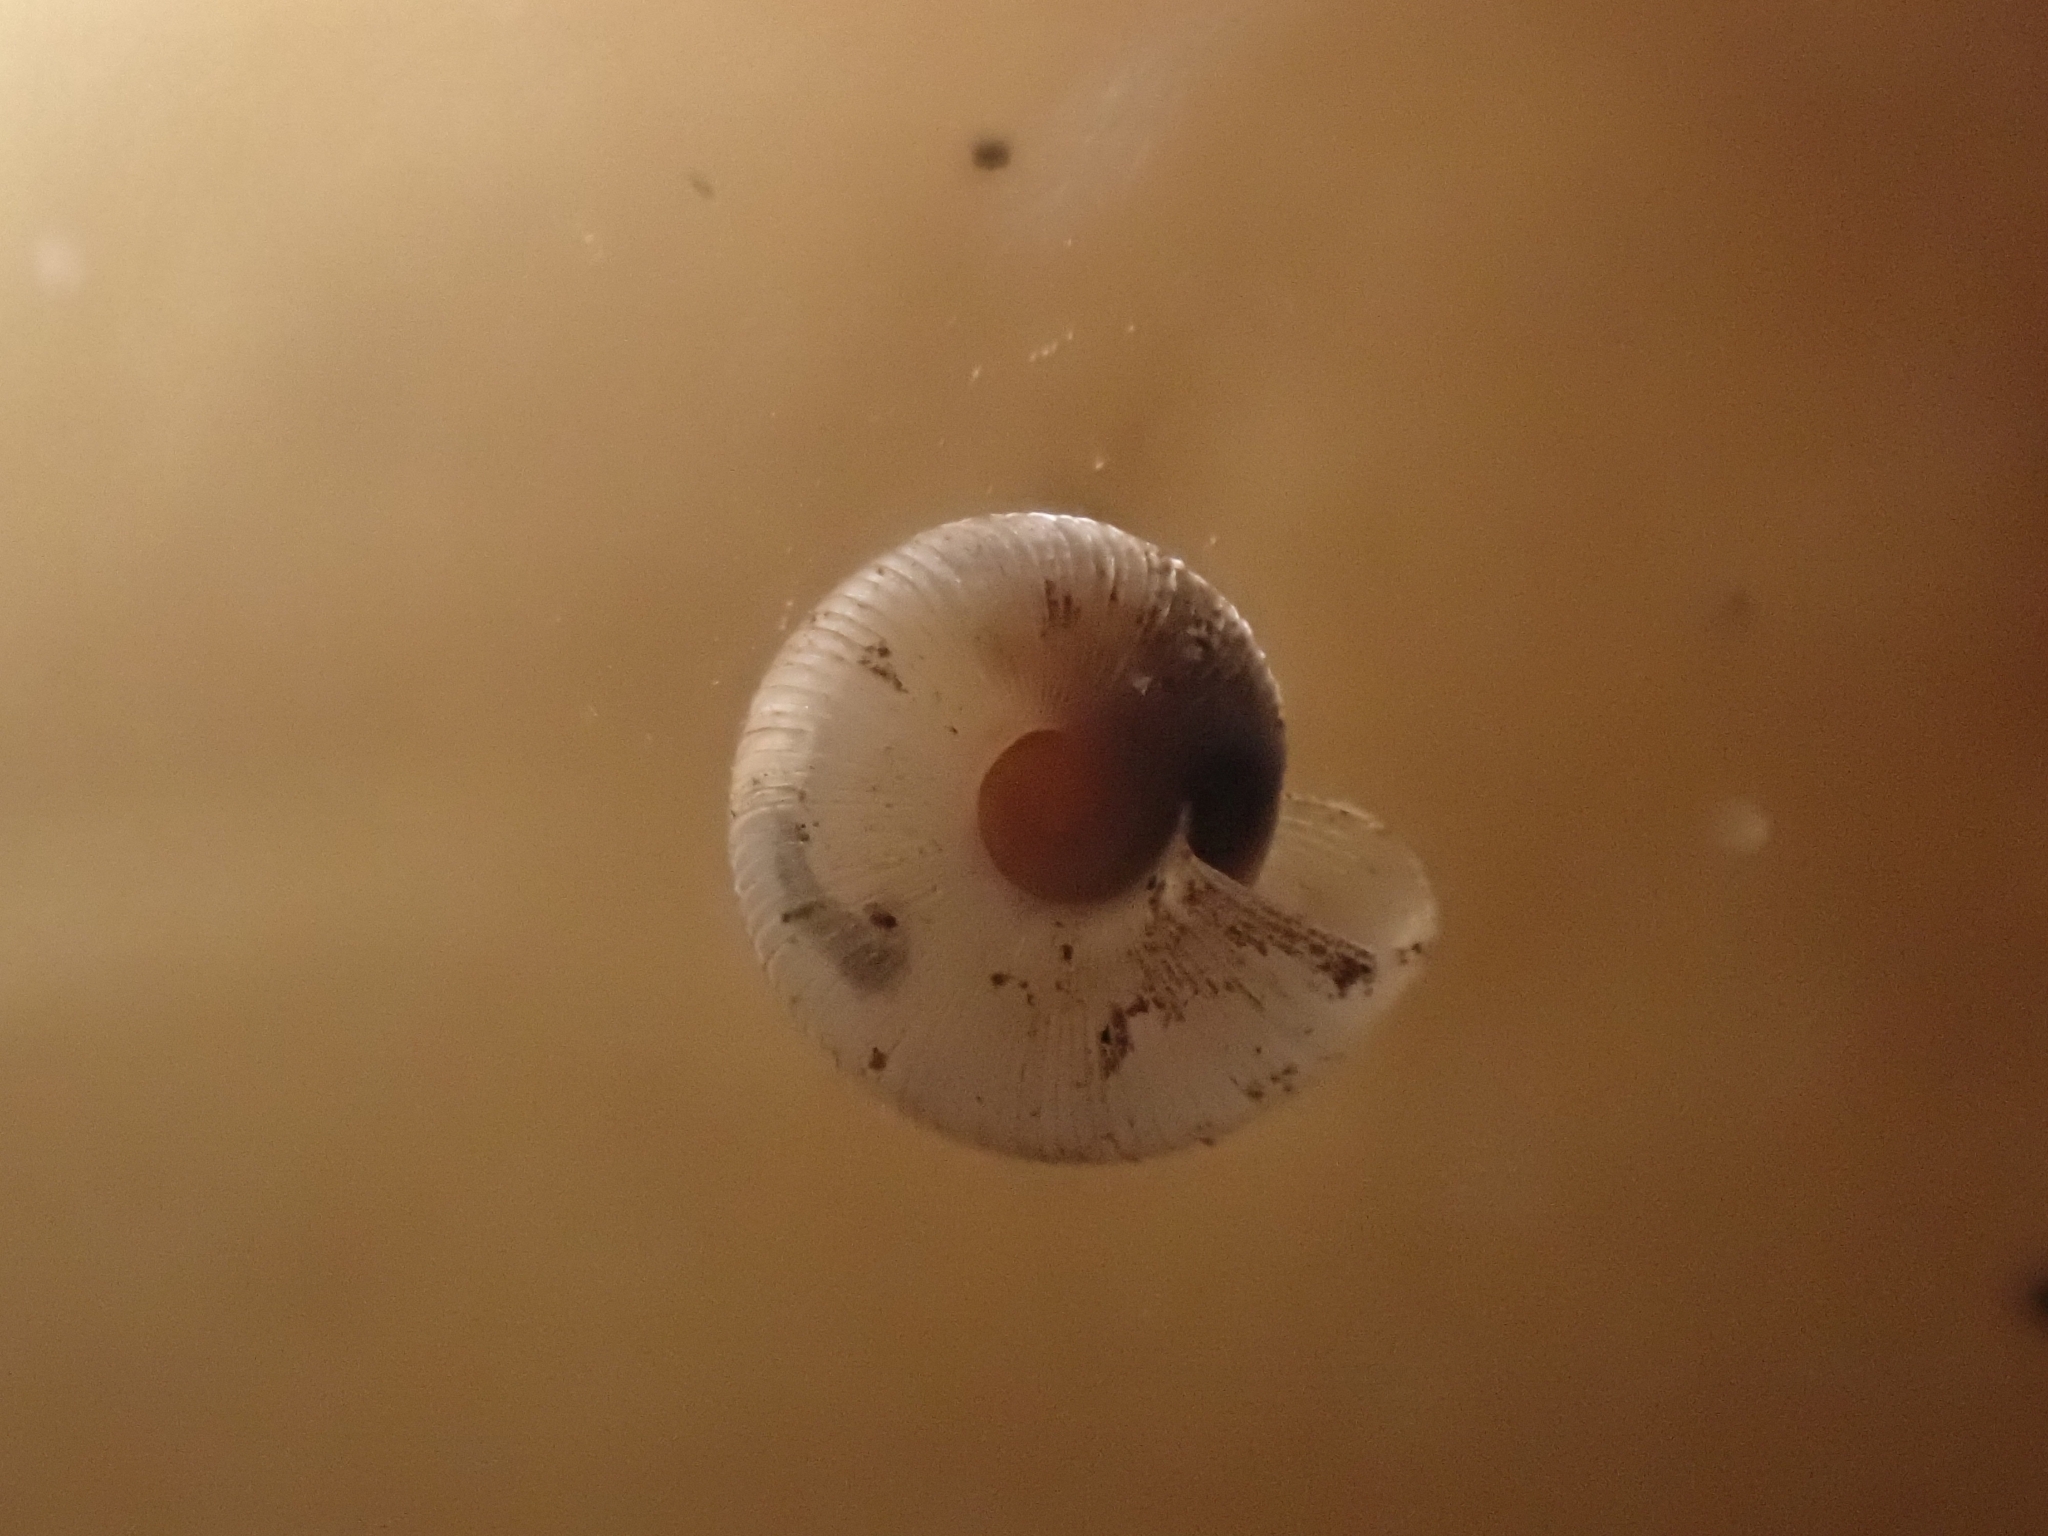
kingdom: Animalia
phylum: Mollusca
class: Gastropoda
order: Stylommatophora
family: Charopidae
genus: Mocella
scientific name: Mocella eta
